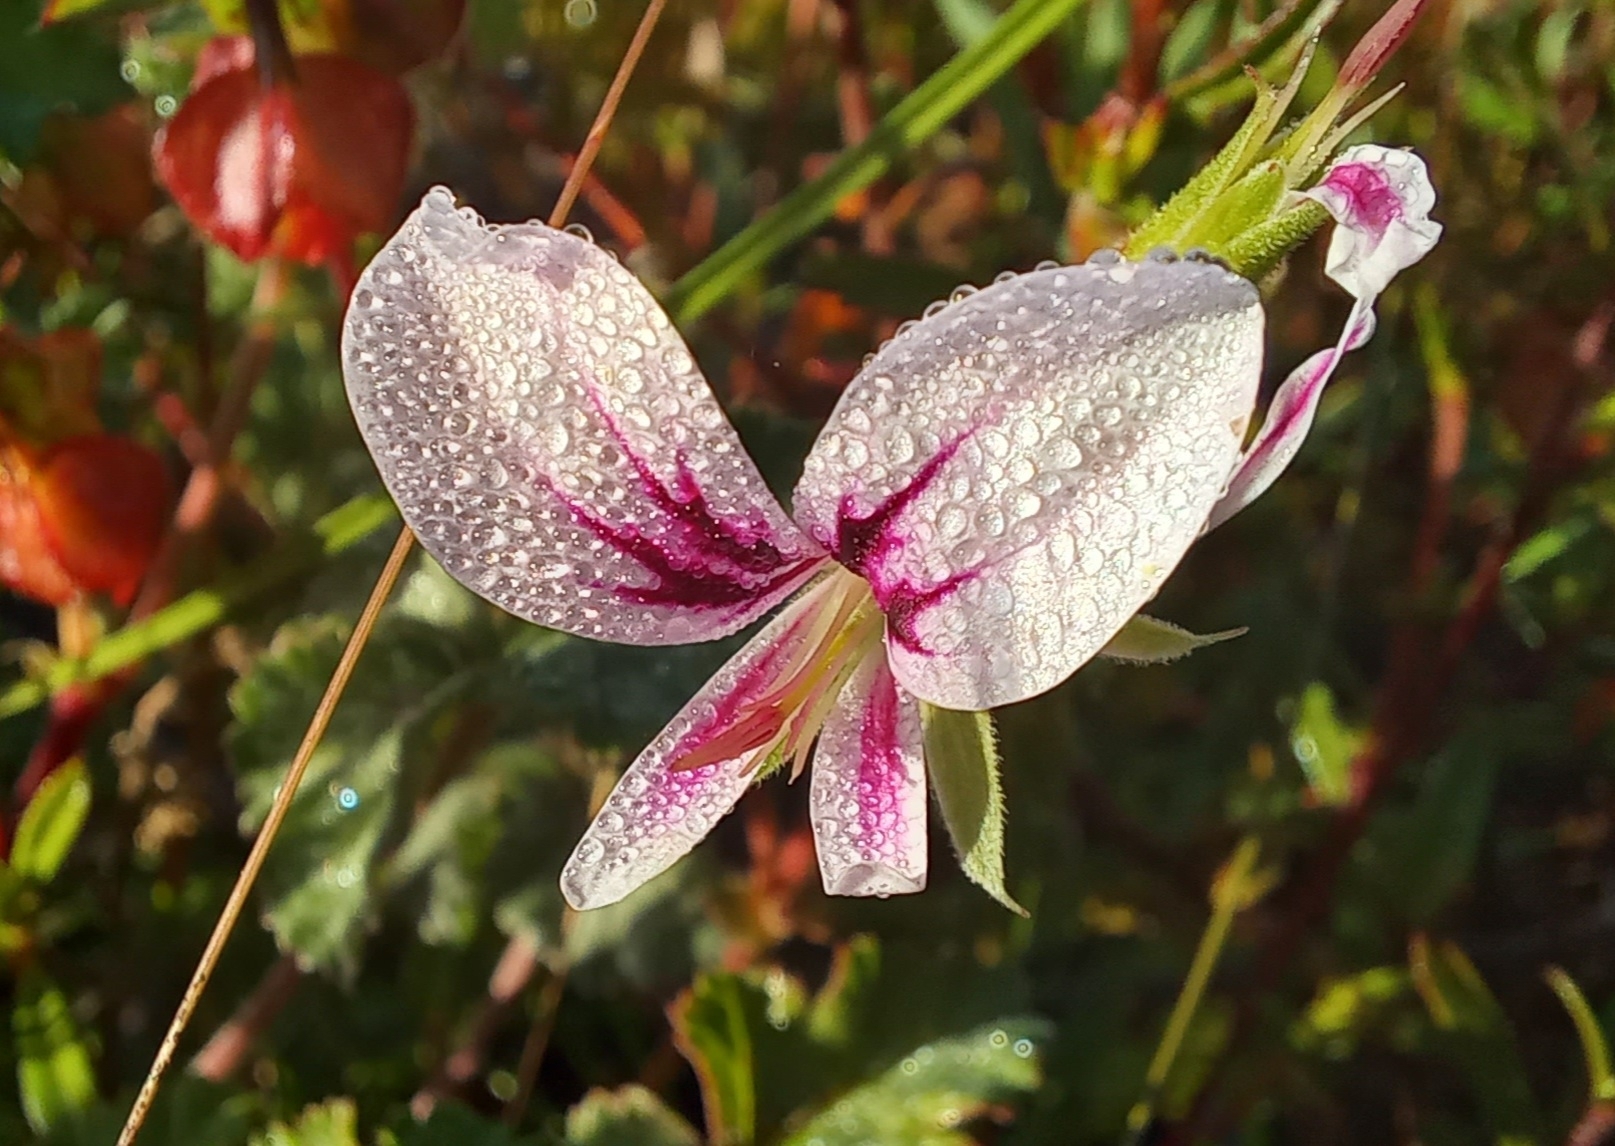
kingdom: Plantae
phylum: Tracheophyta
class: Magnoliopsida
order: Geraniales
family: Geraniaceae
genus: Pelargonium
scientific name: Pelargonium candicans
